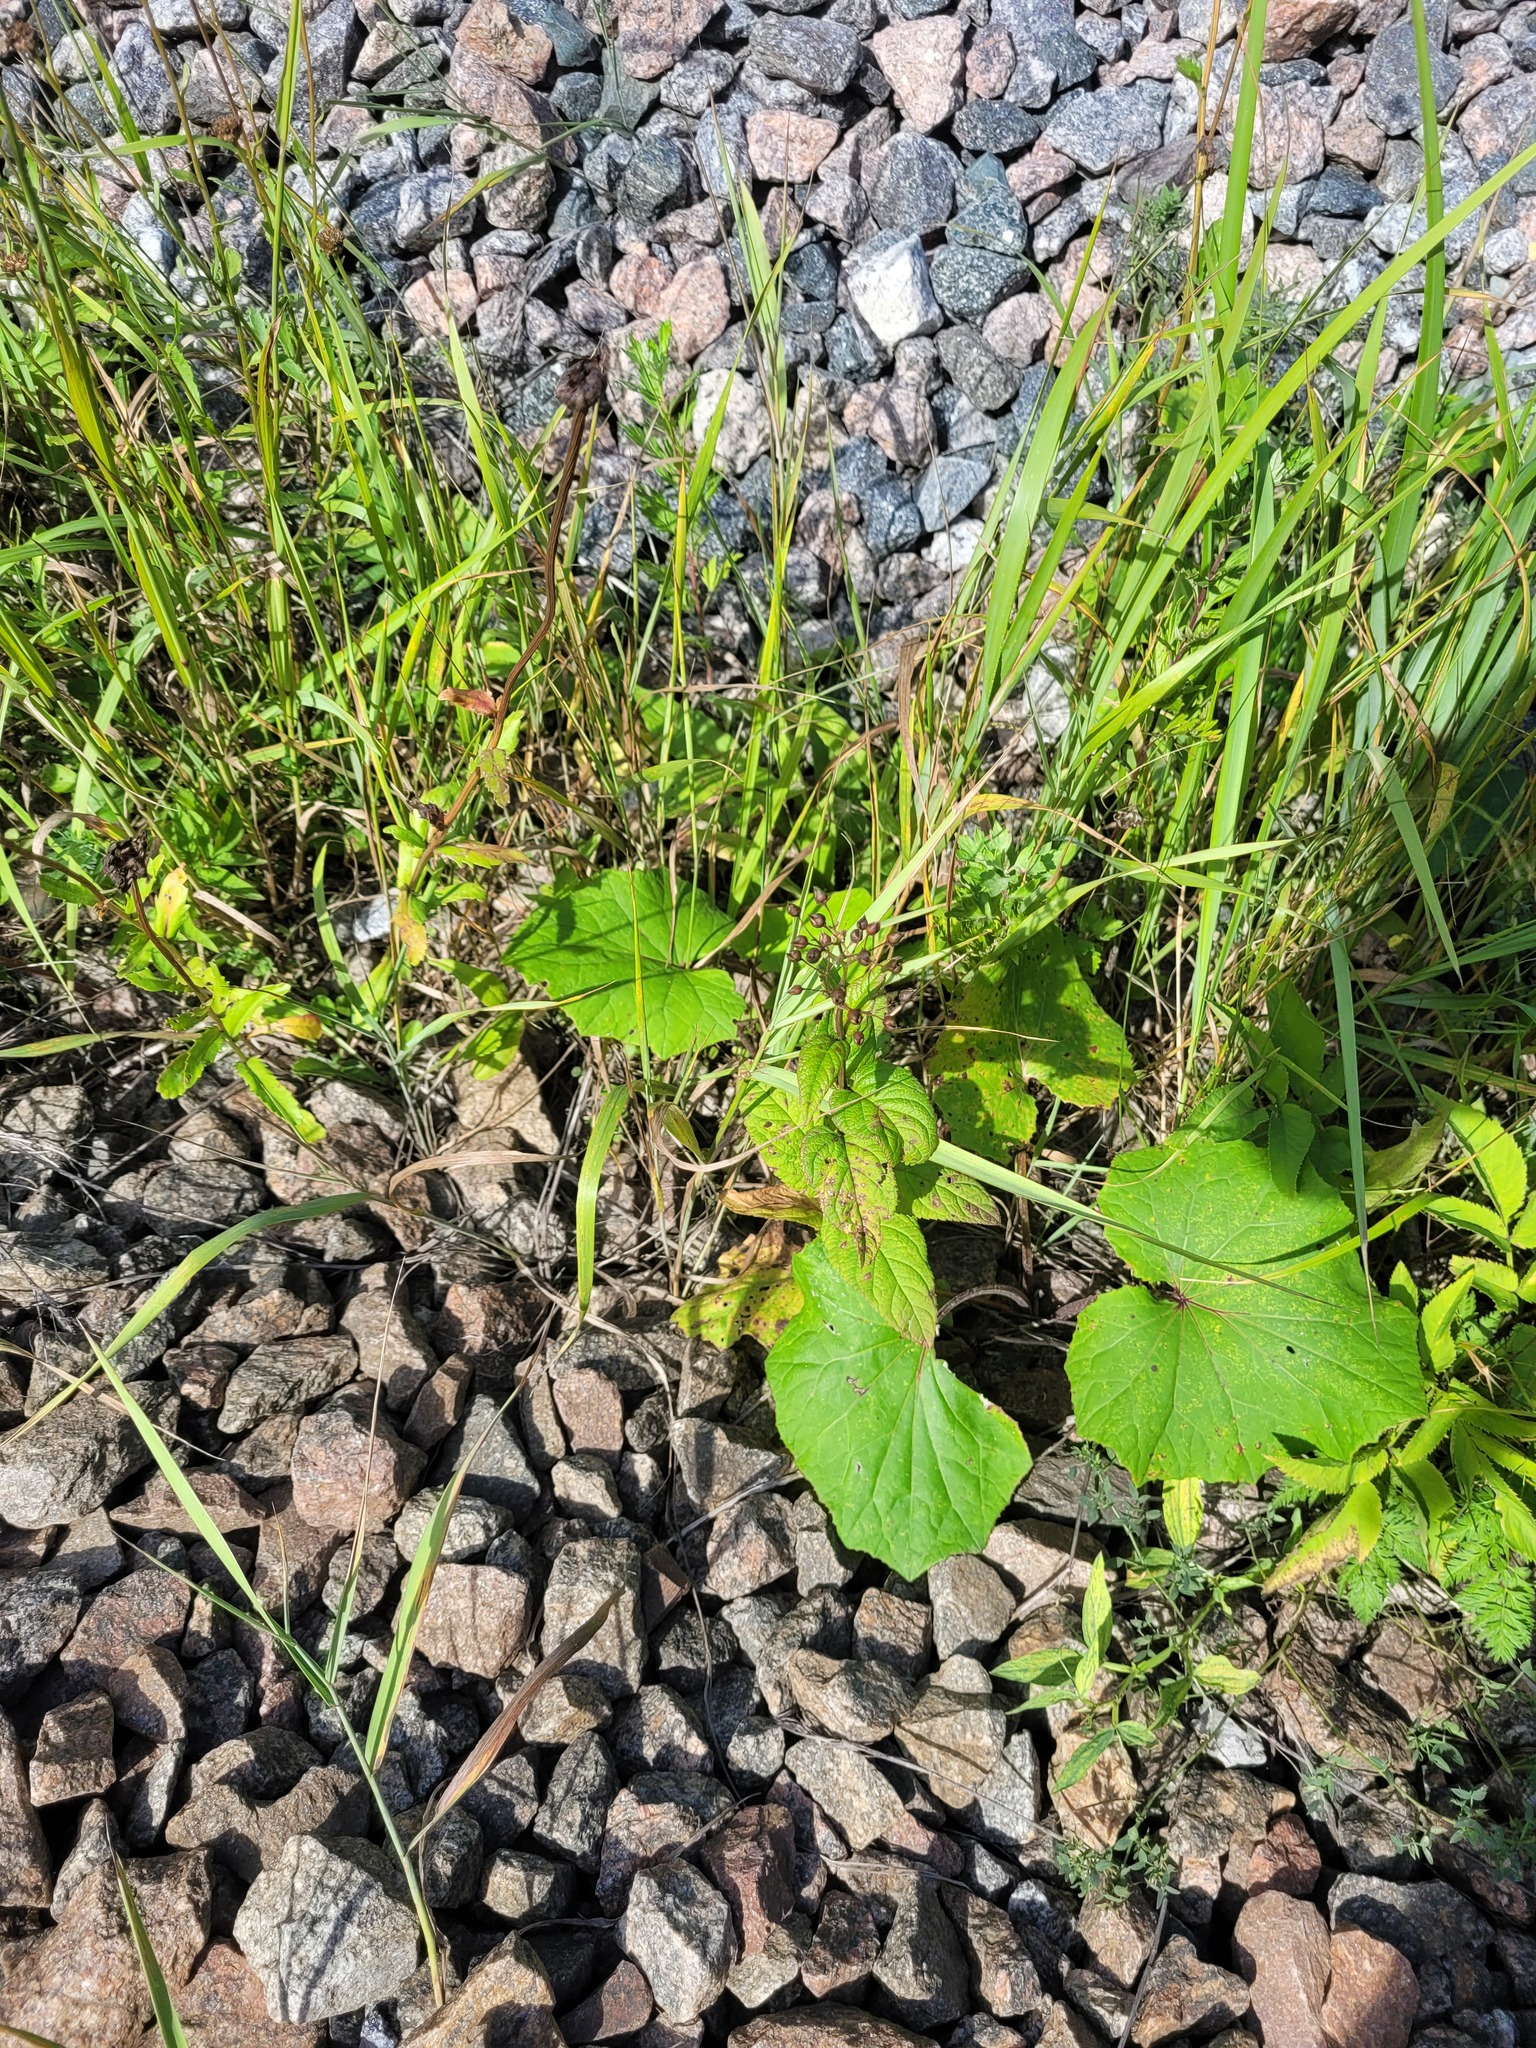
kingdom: Plantae
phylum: Tracheophyta
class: Magnoliopsida
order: Lamiales
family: Scrophulariaceae
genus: Scrophularia
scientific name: Scrophularia nodosa
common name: Common figwort
